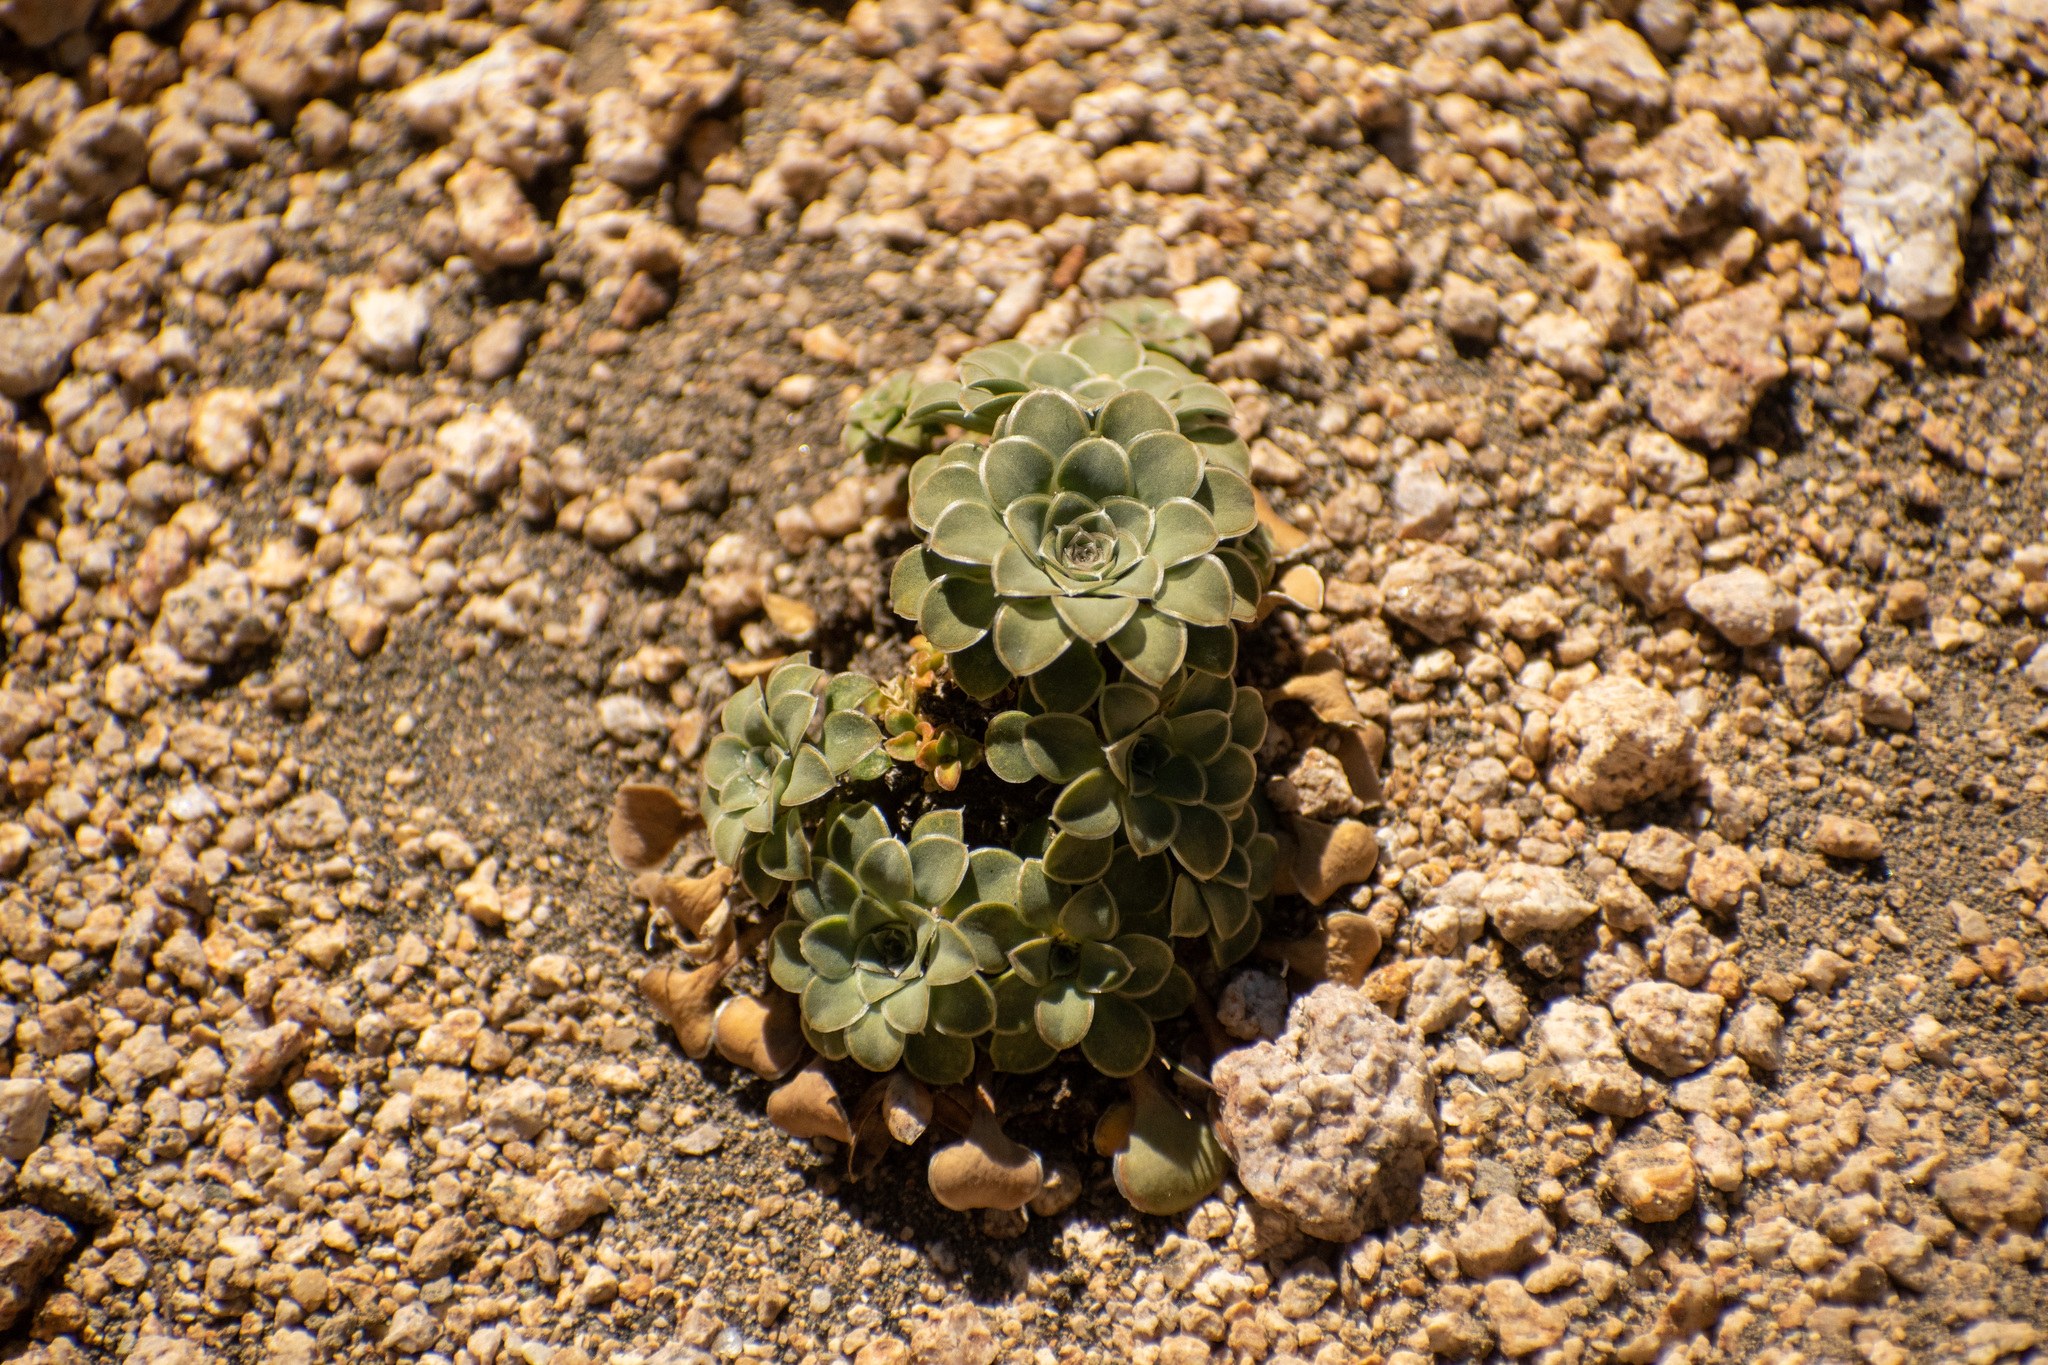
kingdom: Plantae
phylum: Tracheophyta
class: Magnoliopsida
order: Malpighiales
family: Violaceae
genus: Viola
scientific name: Viola petraea
